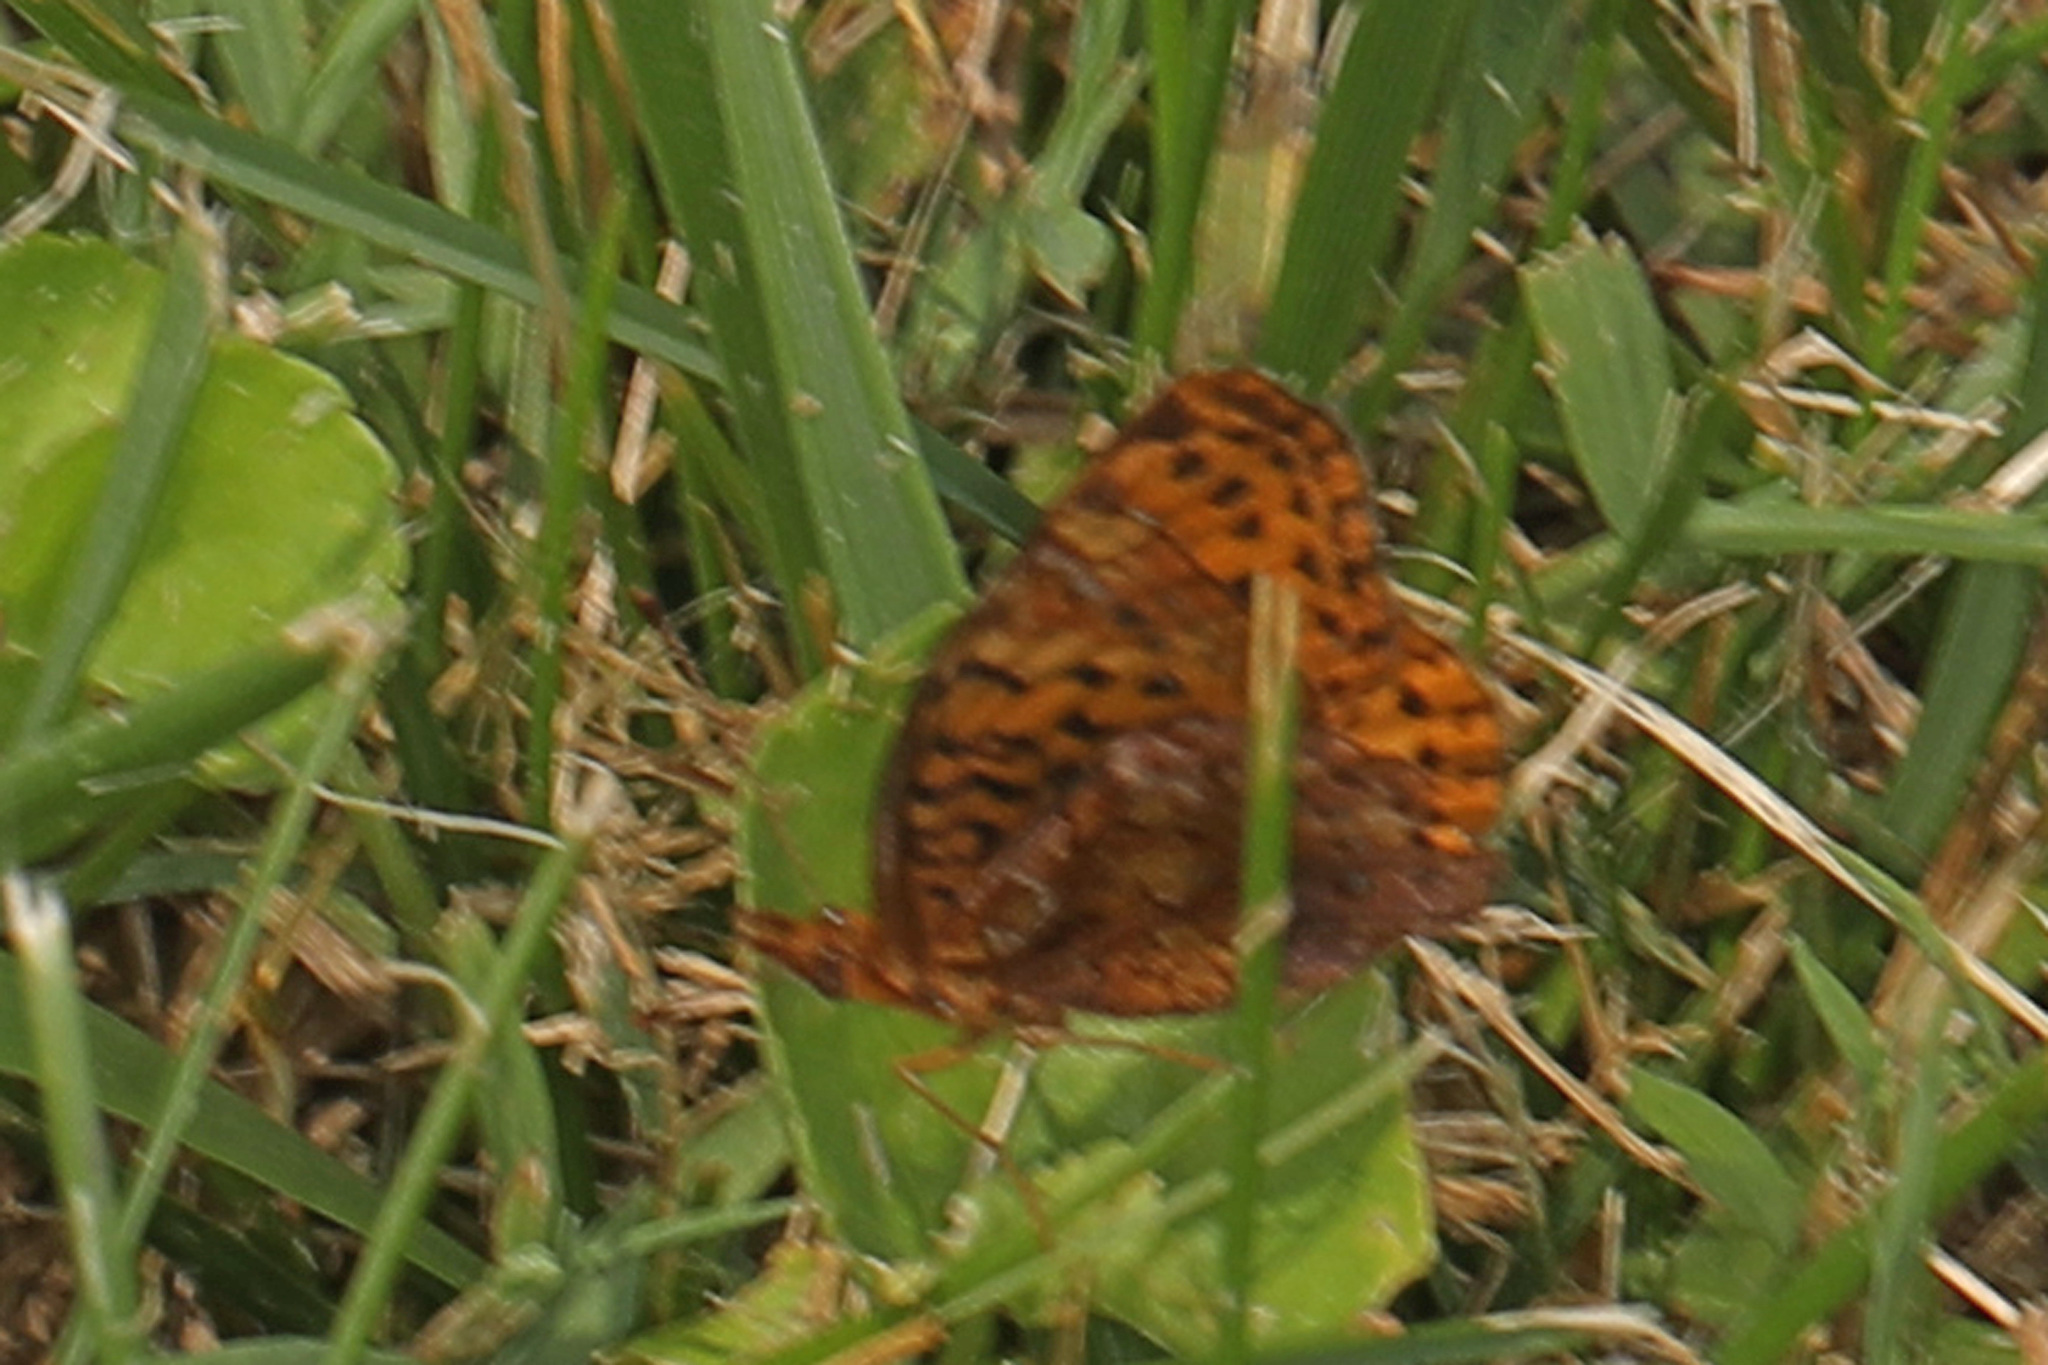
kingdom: Animalia
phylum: Arthropoda
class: Insecta
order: Lepidoptera
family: Nymphalidae
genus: Clossiana
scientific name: Clossiana toddi
